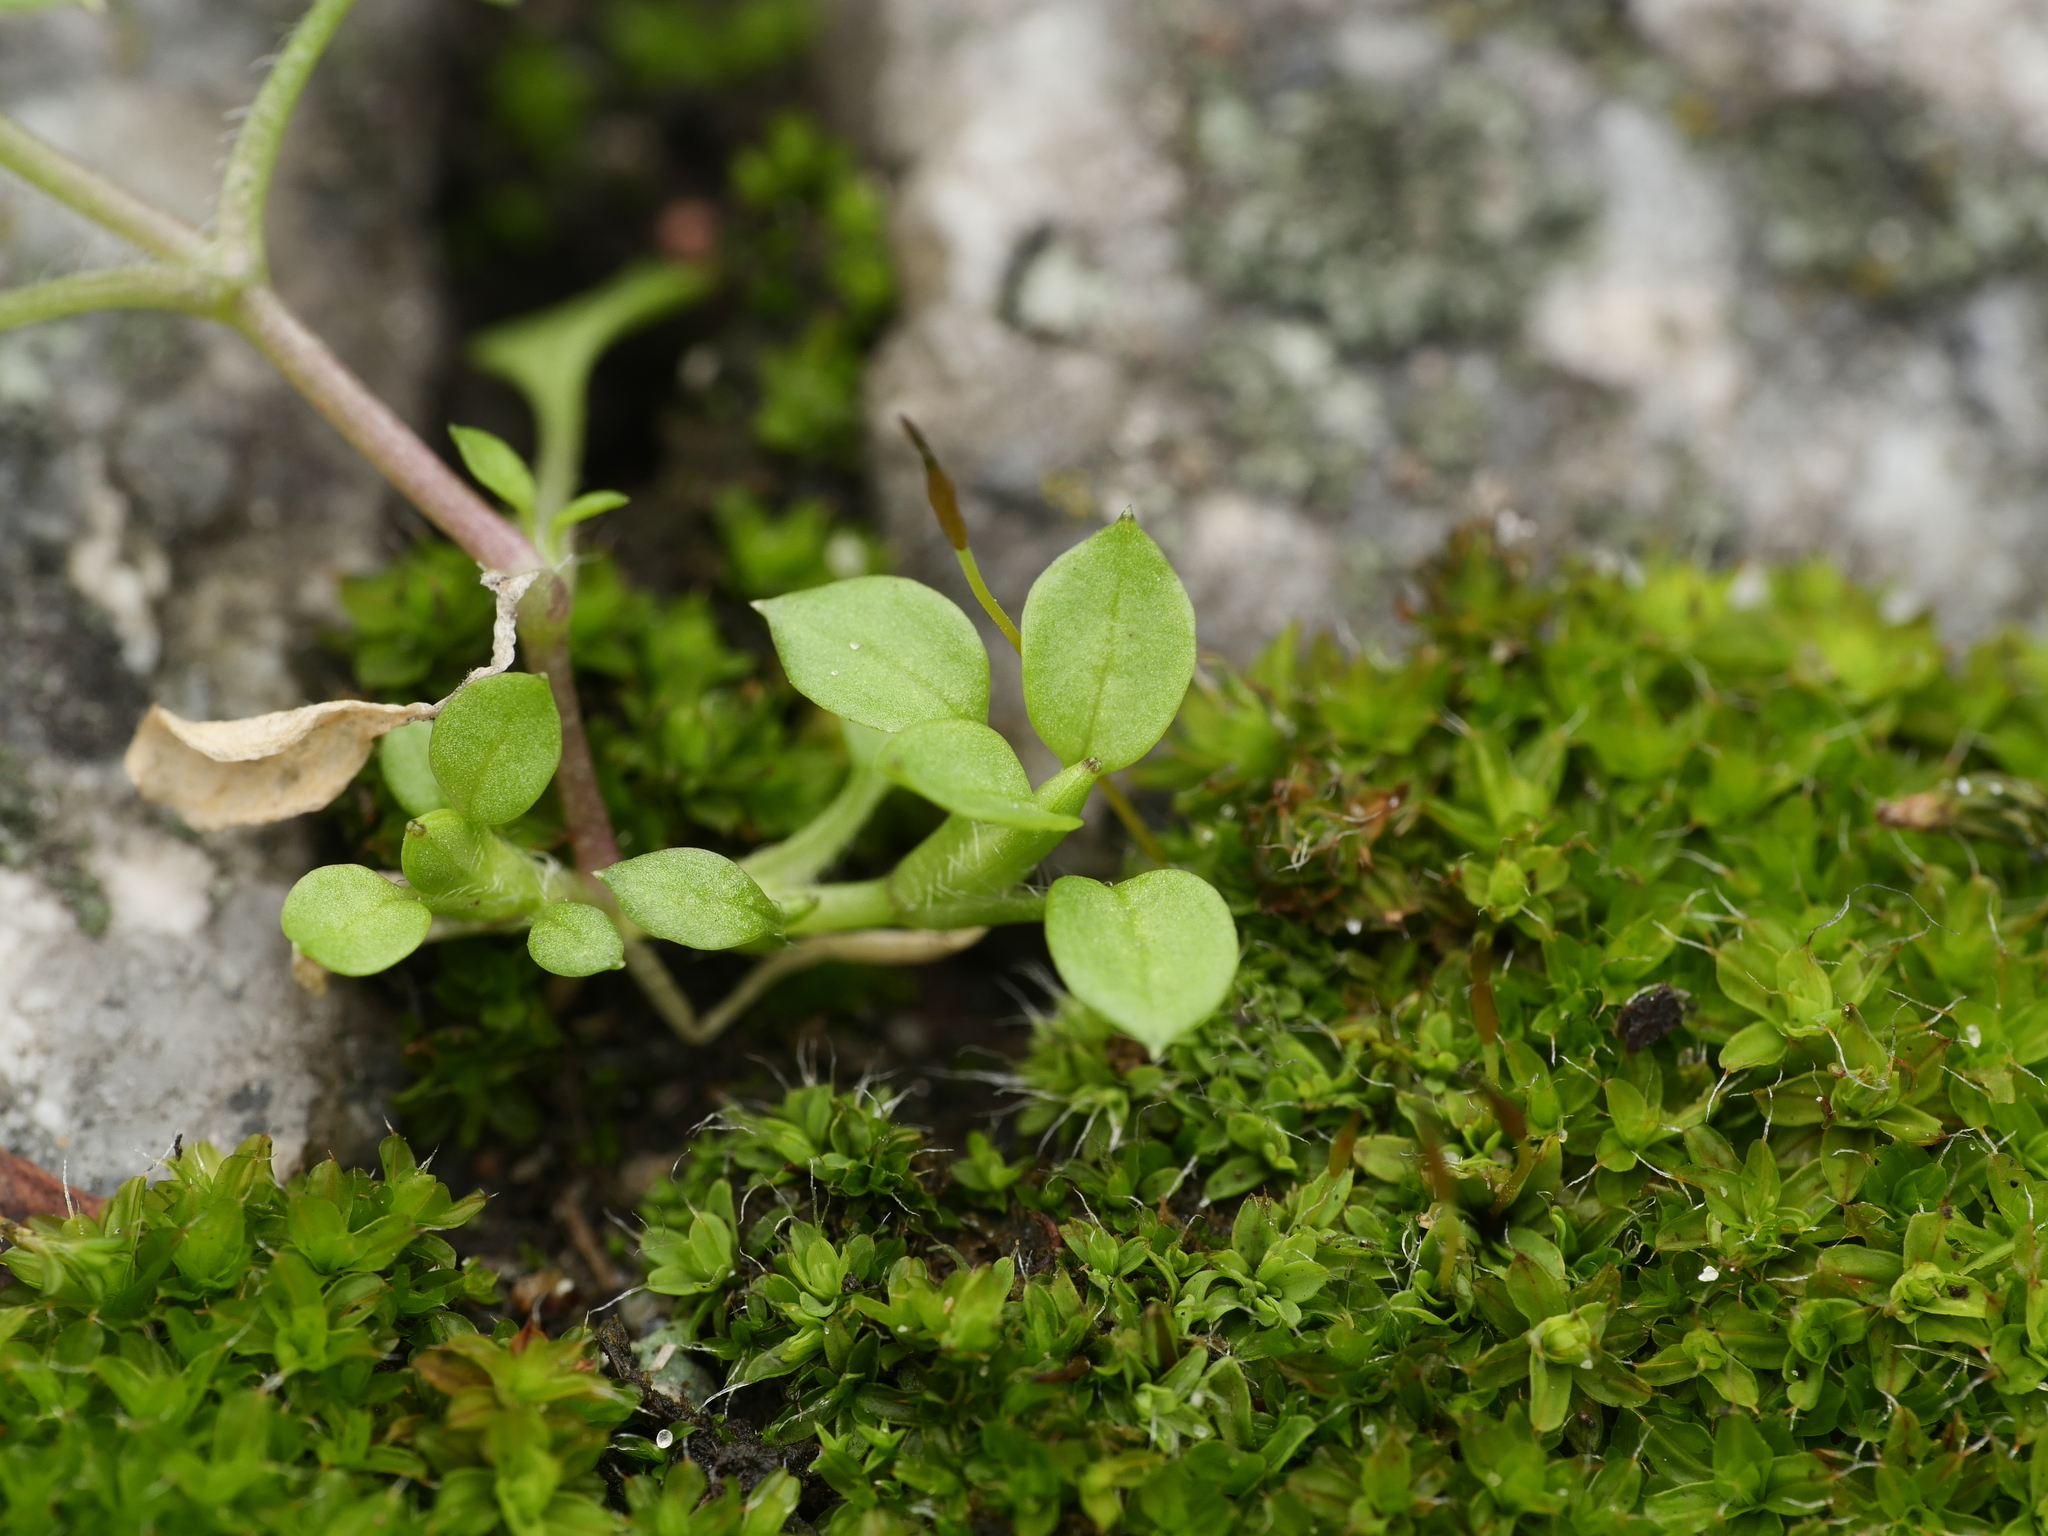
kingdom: Plantae
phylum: Tracheophyta
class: Magnoliopsida
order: Caryophyllales
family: Caryophyllaceae
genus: Stellaria
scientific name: Stellaria media
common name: Common chickweed
